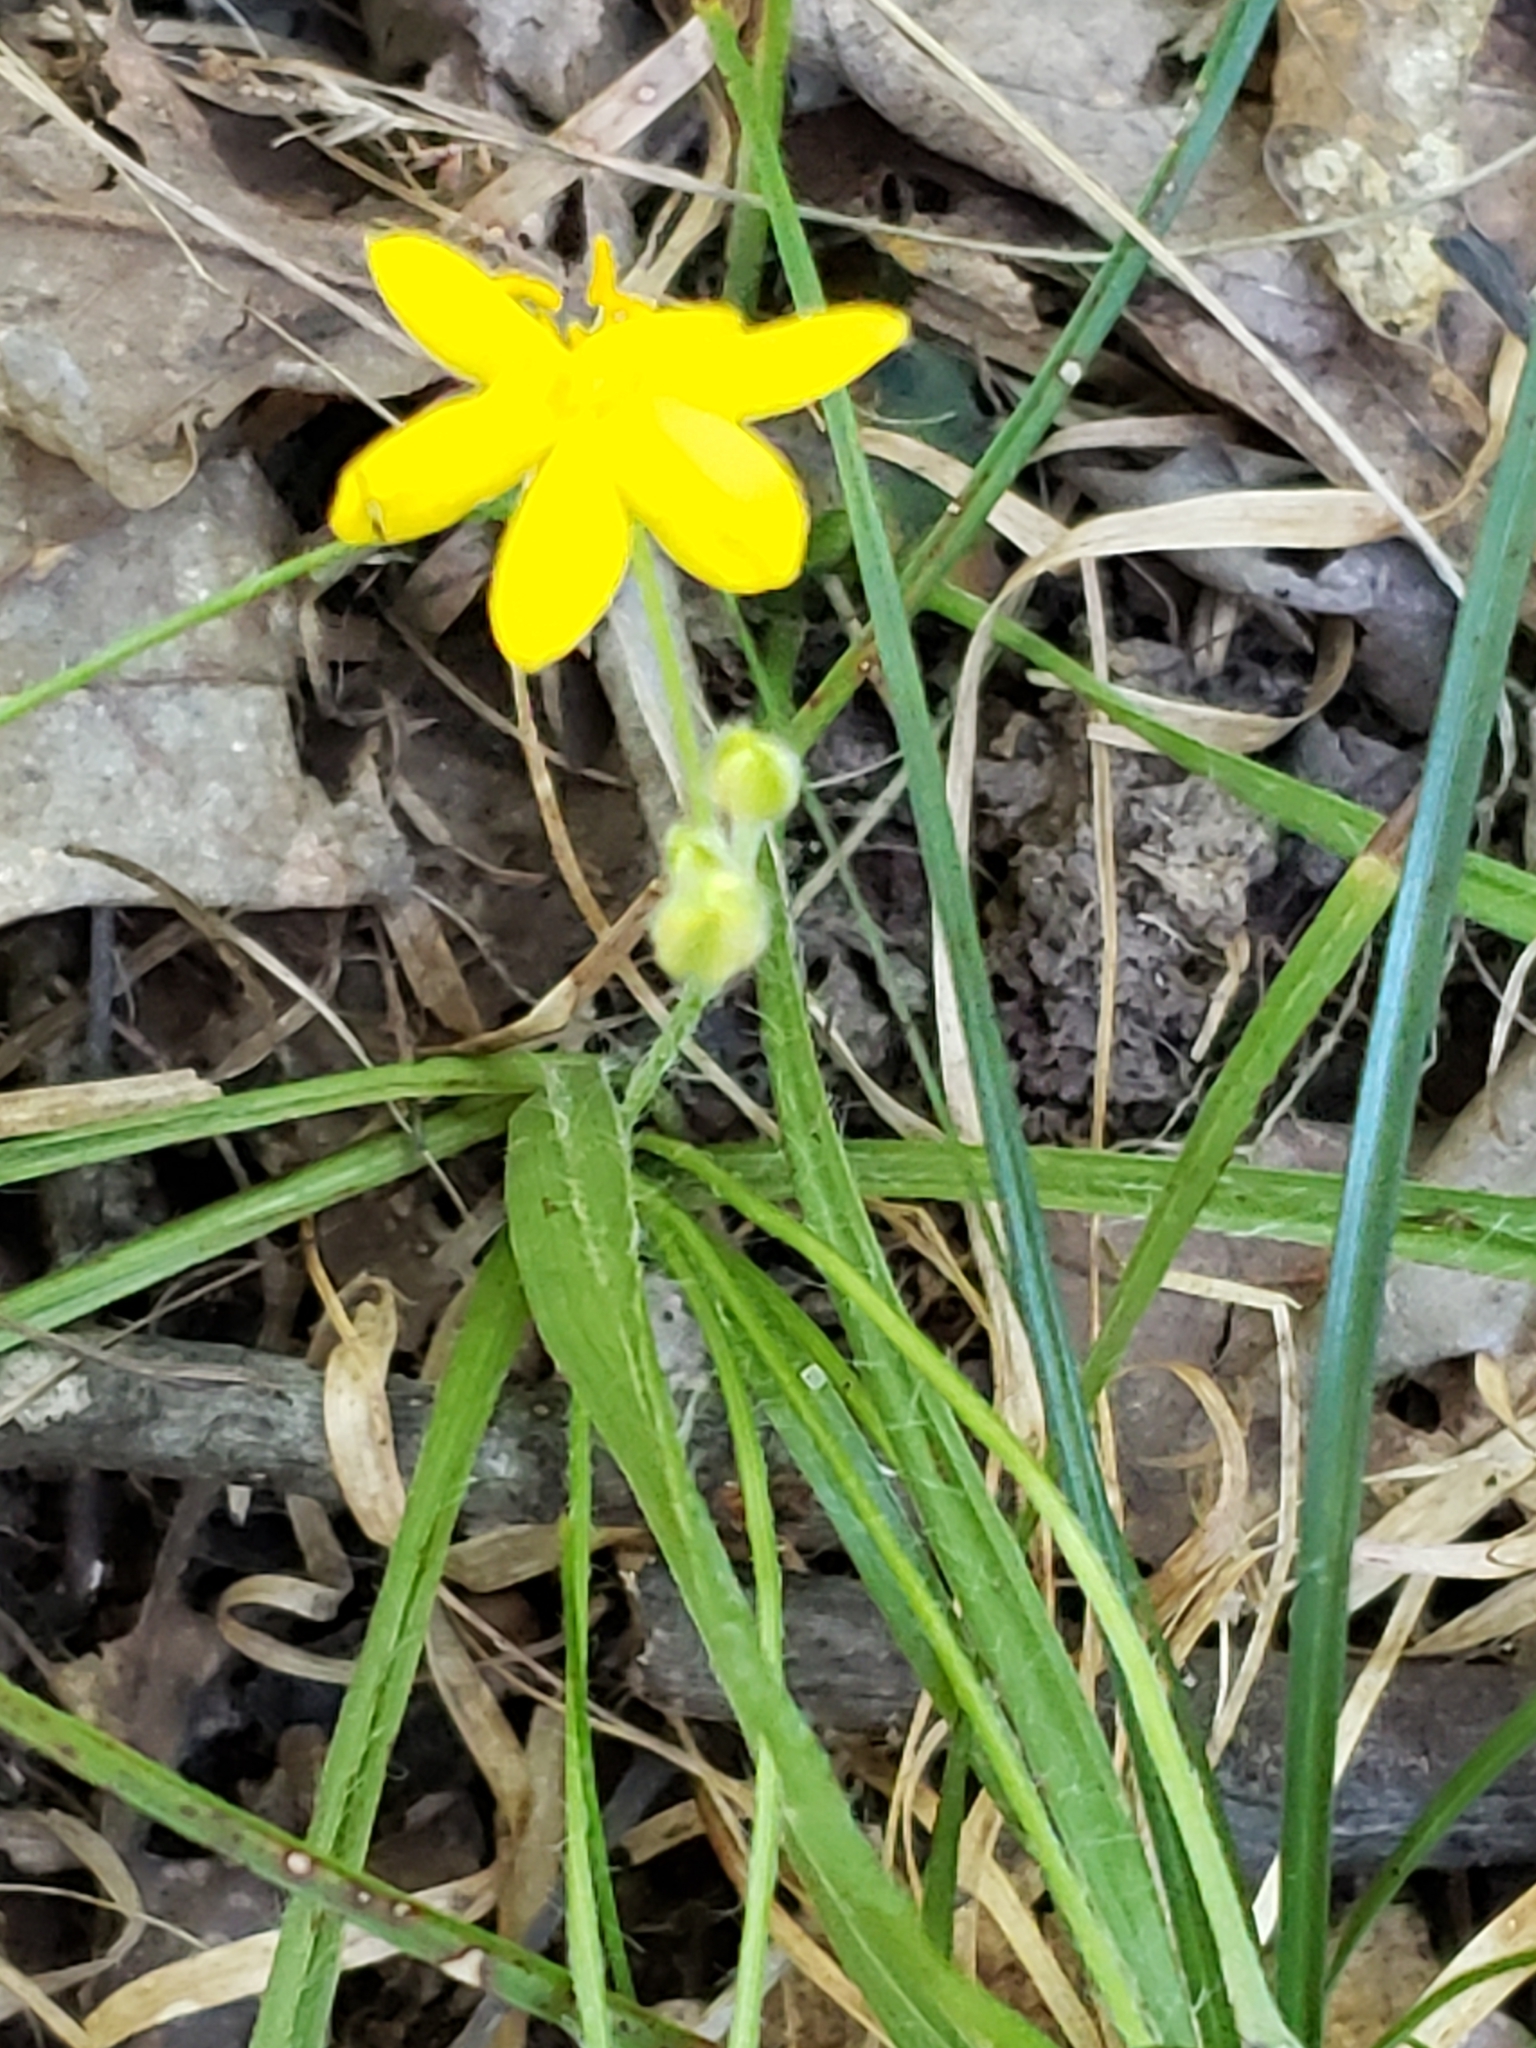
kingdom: Plantae
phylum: Tracheophyta
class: Liliopsida
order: Asparagales
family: Hypoxidaceae
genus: Hypoxis
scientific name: Hypoxis hirsuta
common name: Common goldstar
